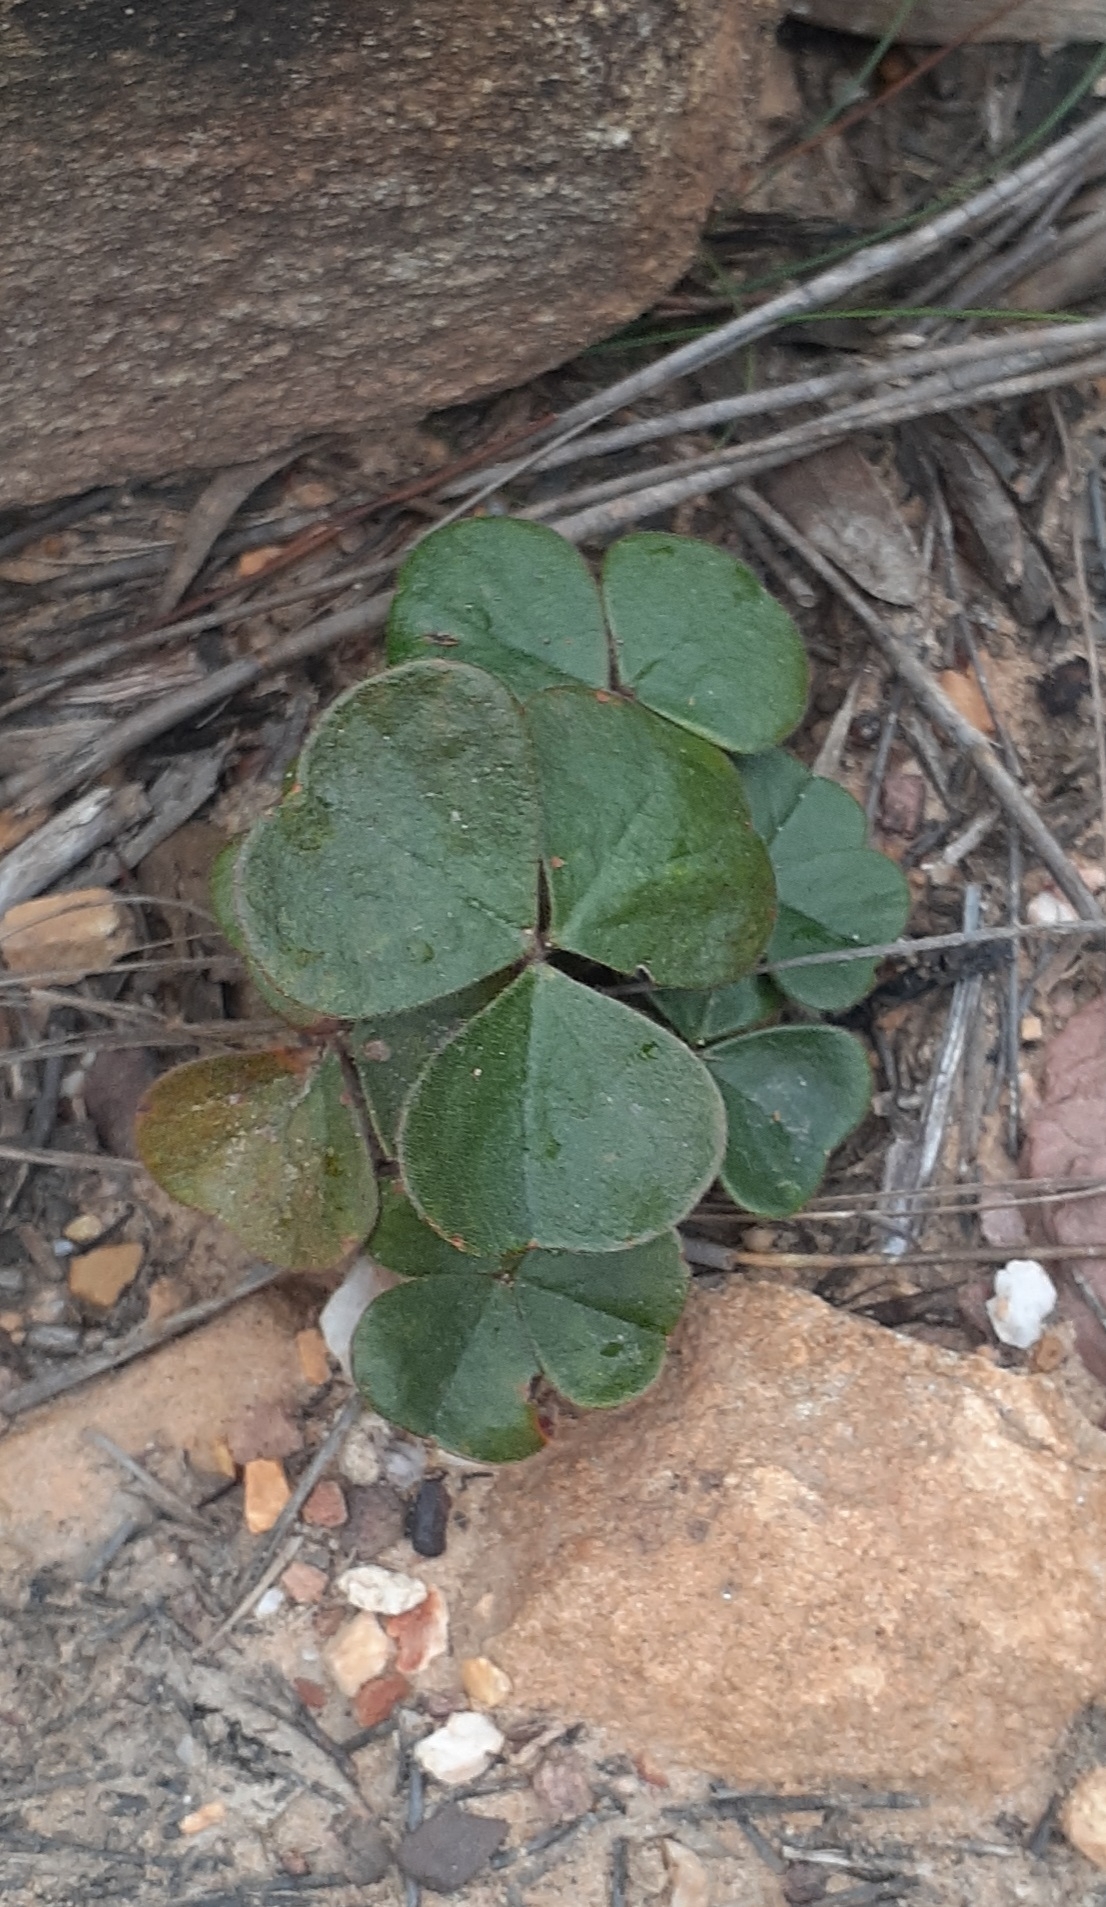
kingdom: Plantae
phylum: Tracheophyta
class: Magnoliopsida
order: Oxalidales
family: Oxalidaceae
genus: Oxalis
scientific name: Oxalis truncatula
